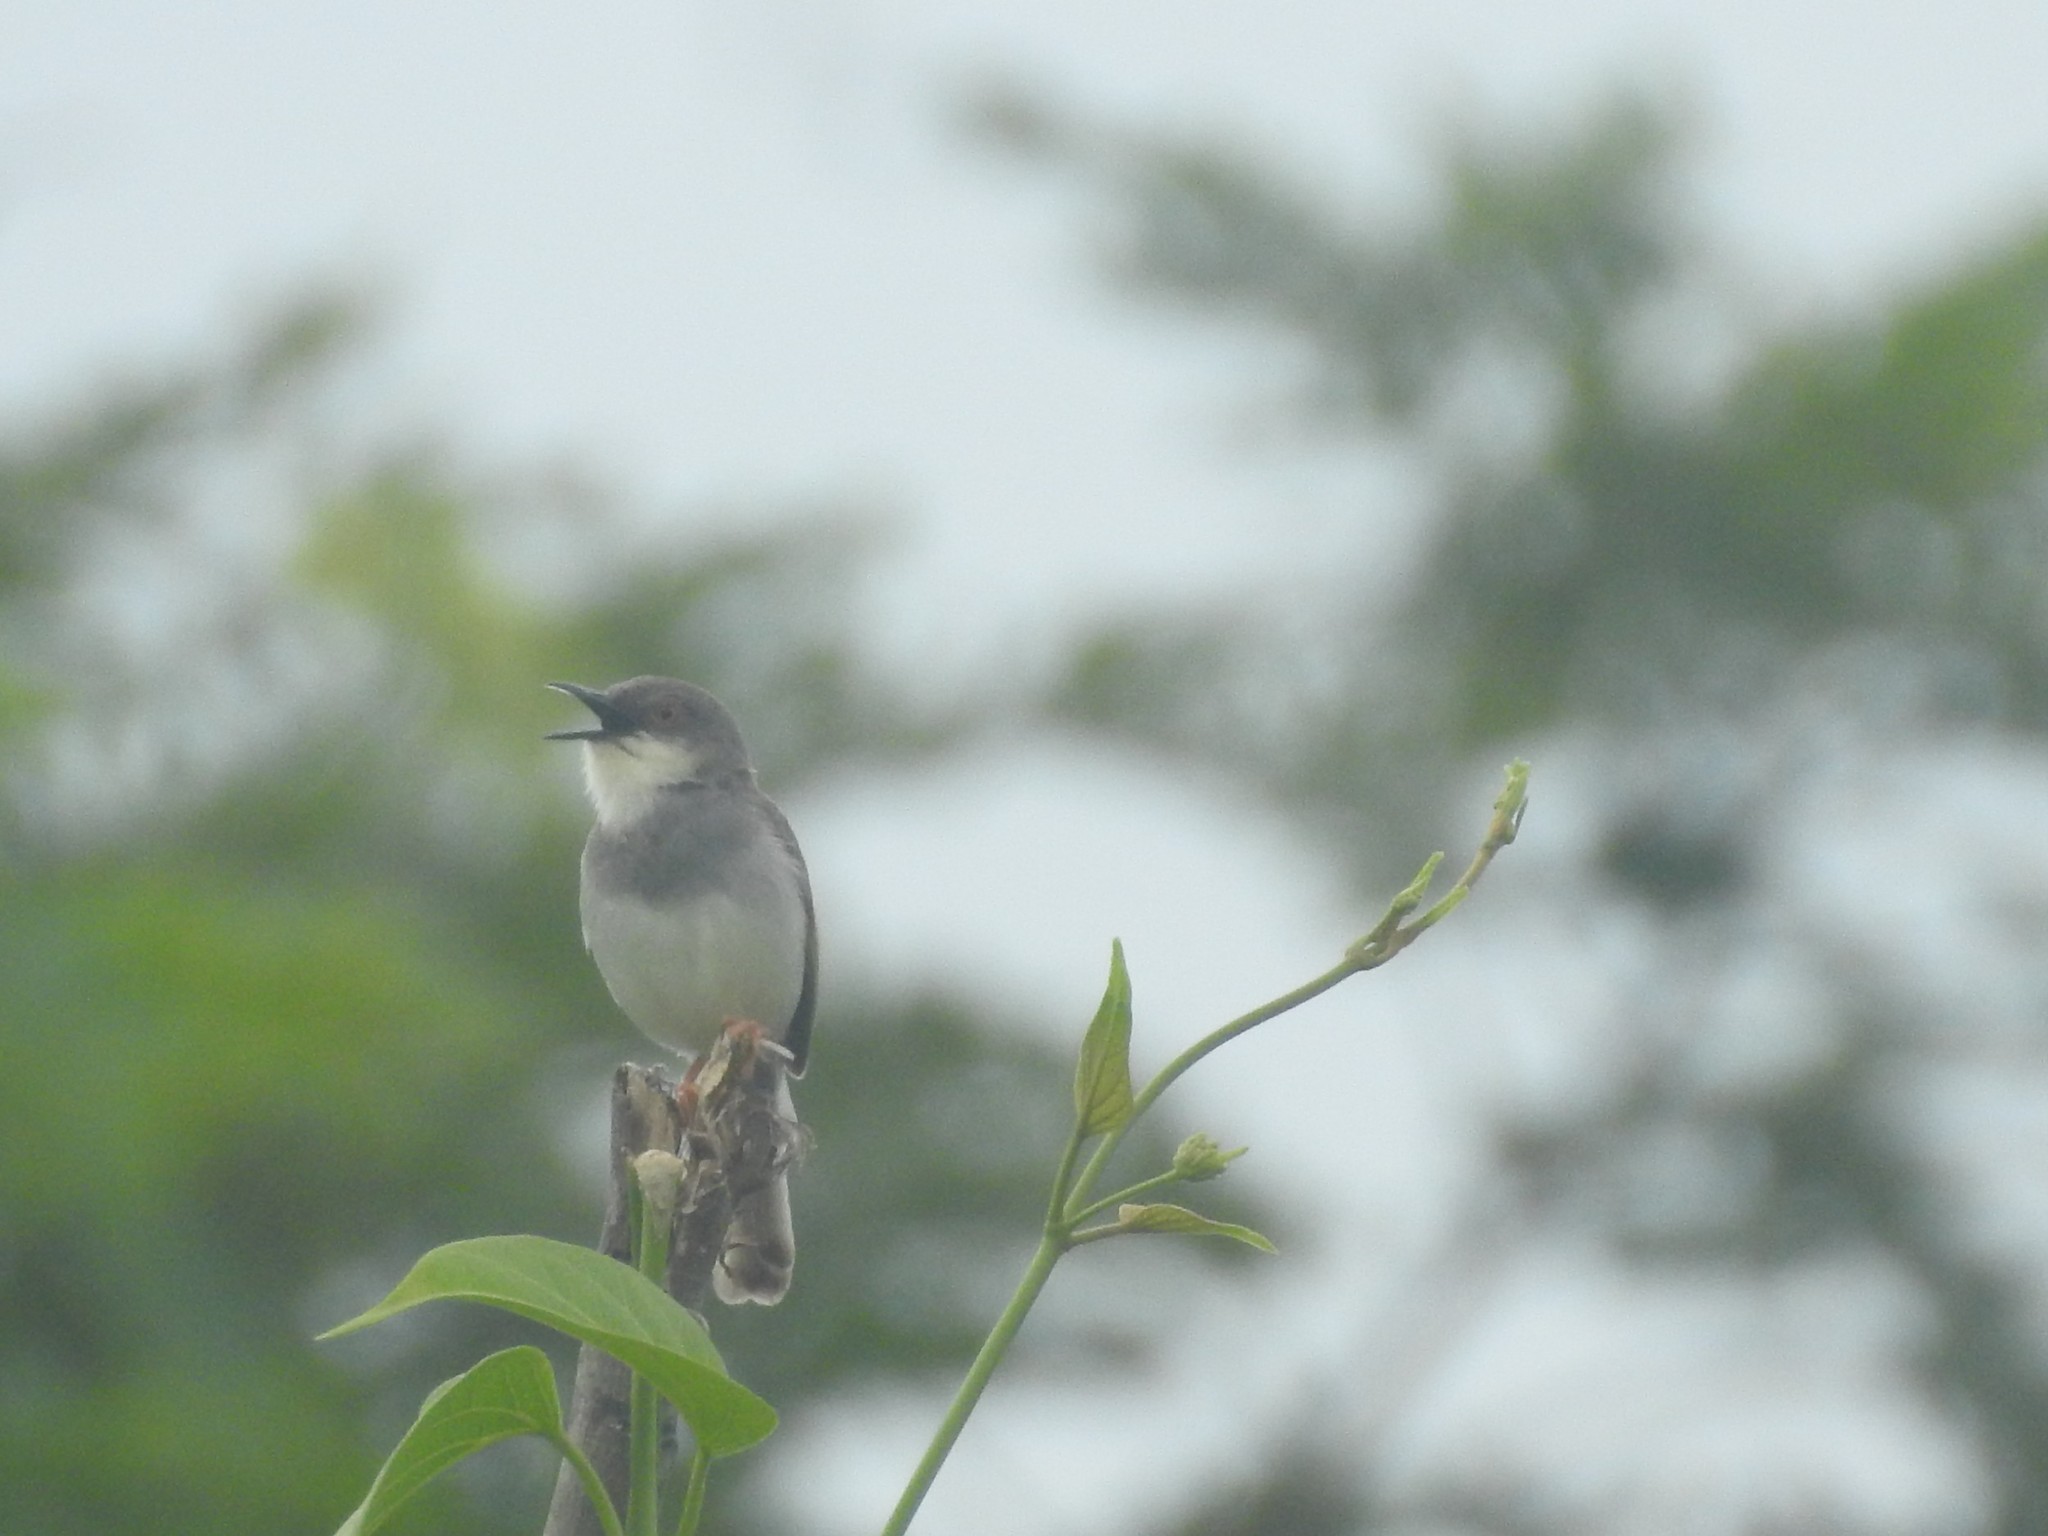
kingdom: Animalia
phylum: Chordata
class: Aves
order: Passeriformes
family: Cisticolidae
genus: Prinia
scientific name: Prinia hodgsonii
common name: Grey-breasted prinia
